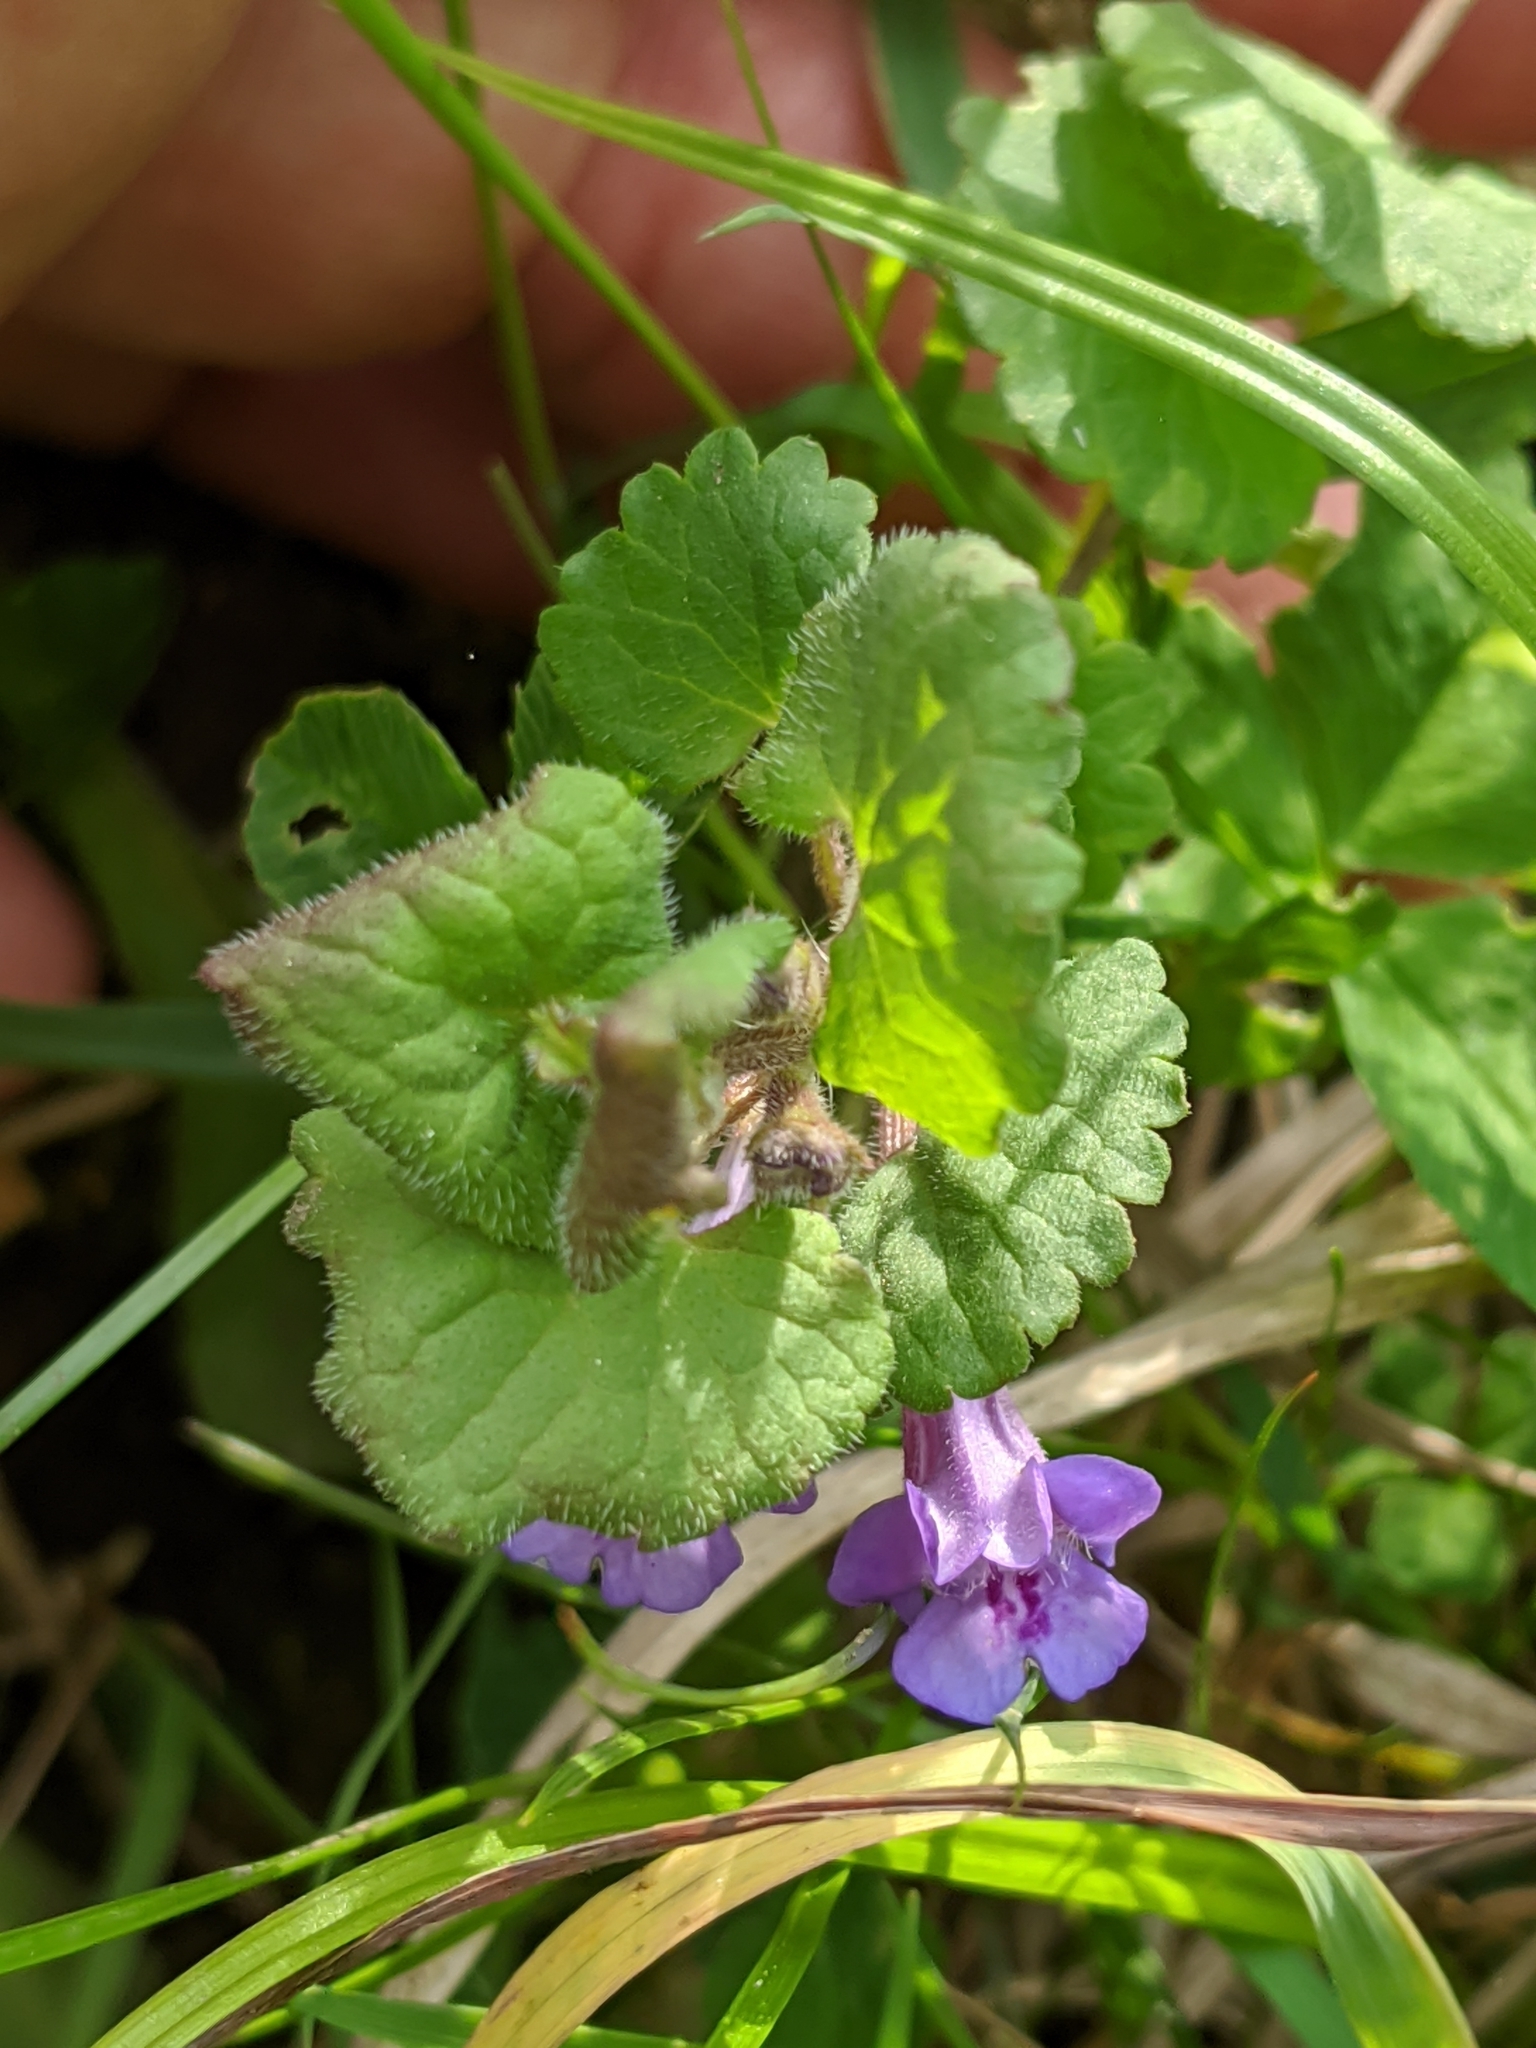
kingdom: Plantae
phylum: Tracheophyta
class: Magnoliopsida
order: Lamiales
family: Lamiaceae
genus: Glechoma
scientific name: Glechoma hederacea
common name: Ground ivy
